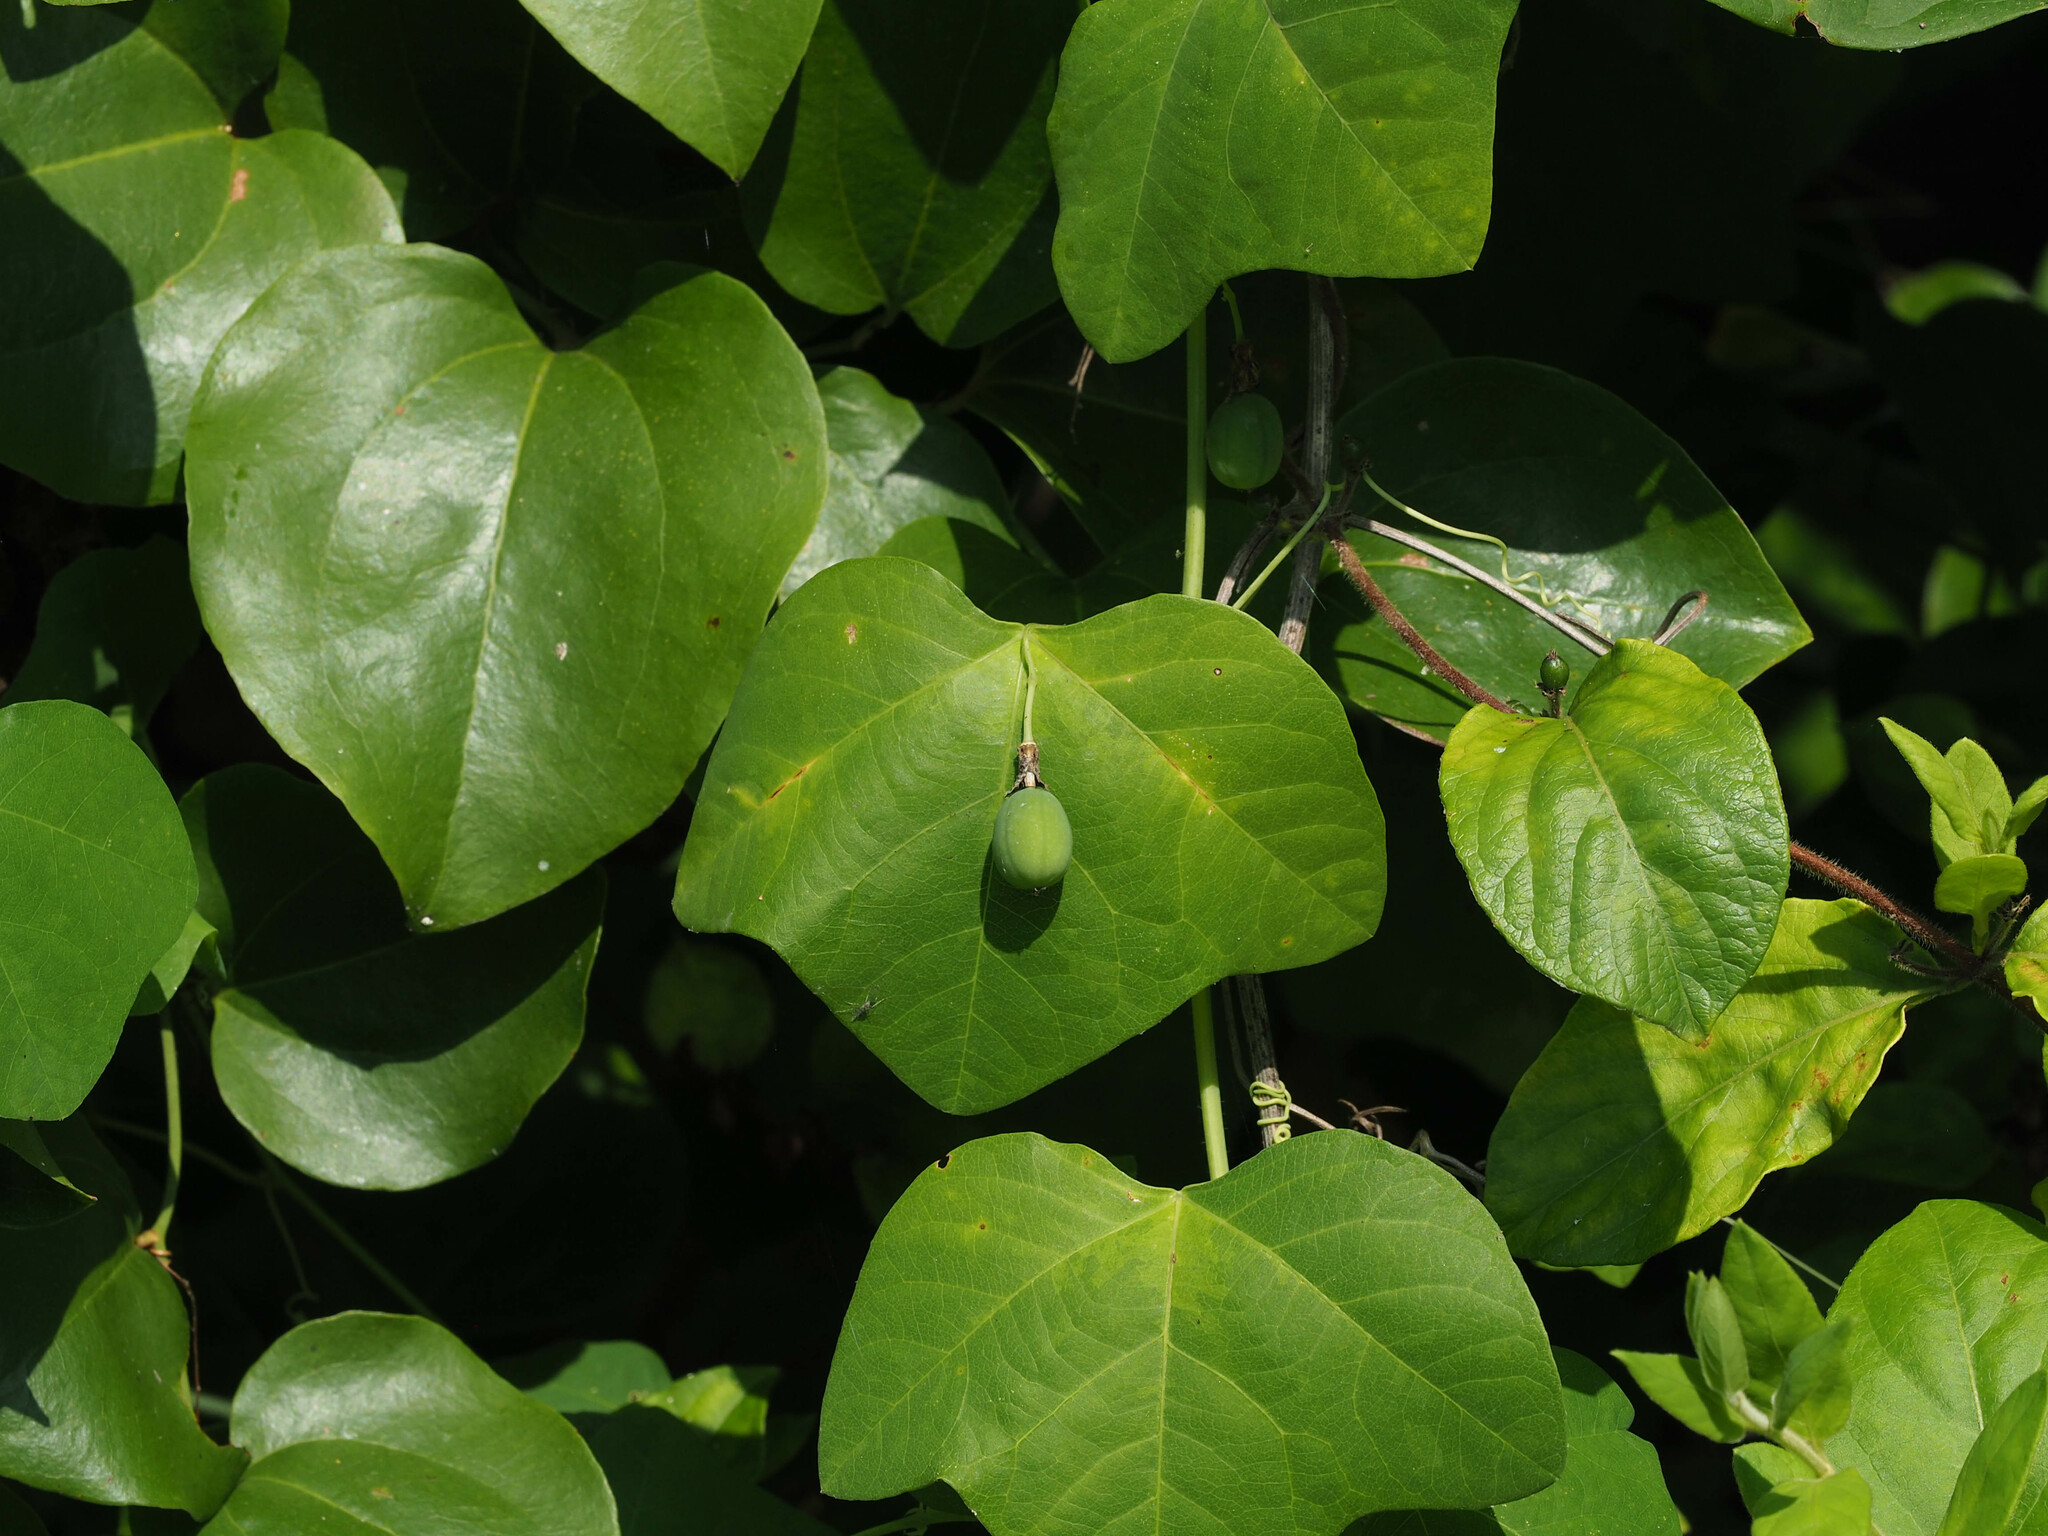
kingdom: Plantae
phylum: Tracheophyta
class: Magnoliopsida
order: Malpighiales
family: Passifloraceae
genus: Passiflora
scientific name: Passiflora lutea
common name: Yellow passionflower
